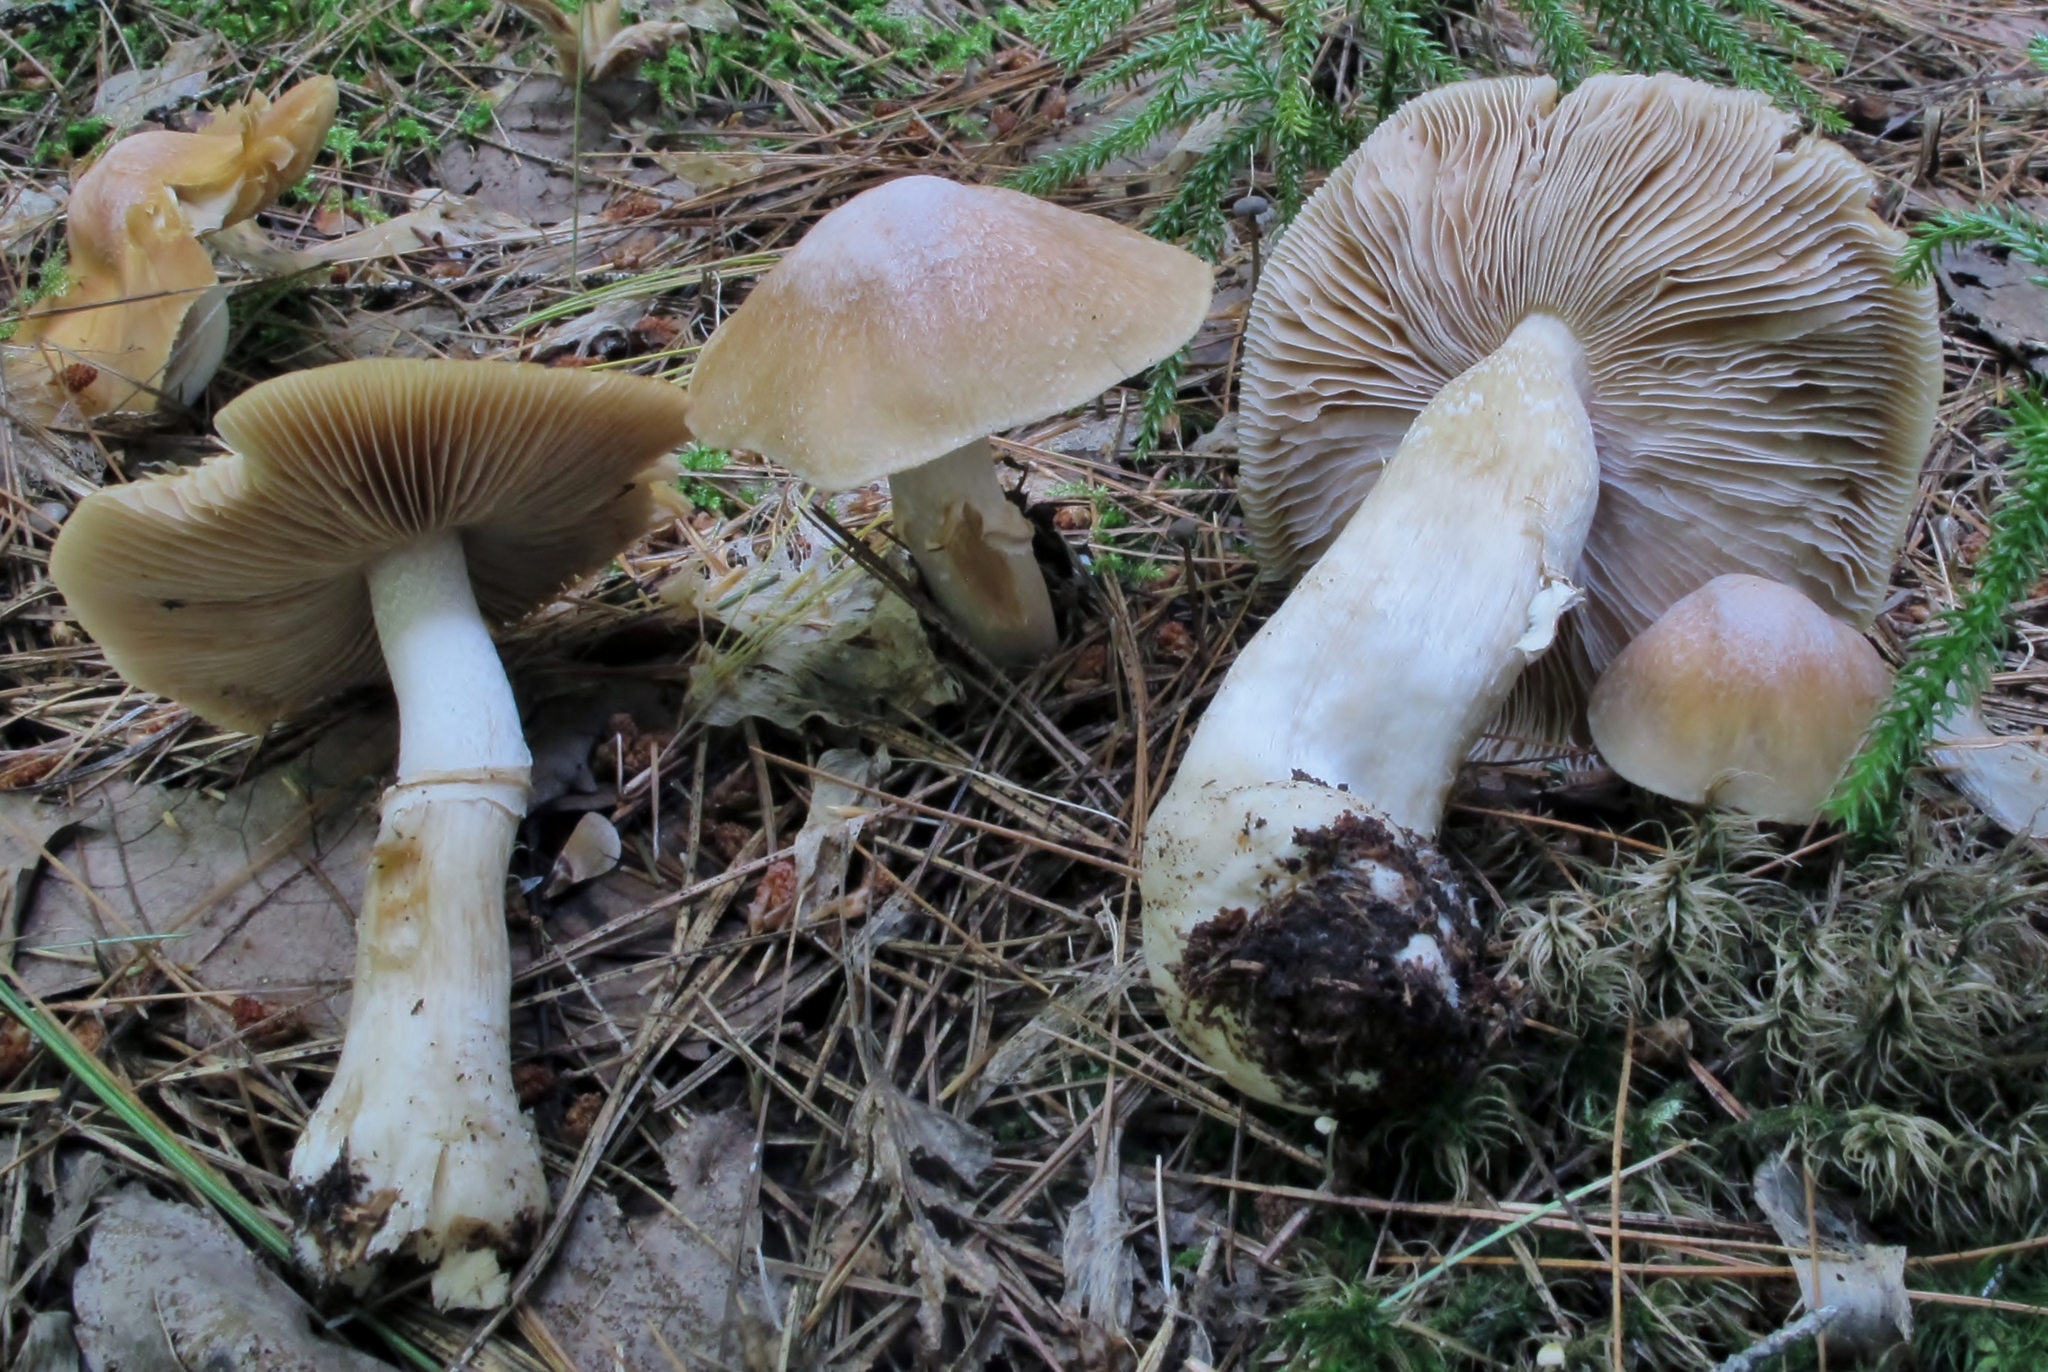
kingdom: Fungi
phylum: Basidiomycota
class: Agaricomycetes
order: Agaricales
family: Cortinariaceae
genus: Cortinarius
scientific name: Cortinarius caperatus
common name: The gypsy
